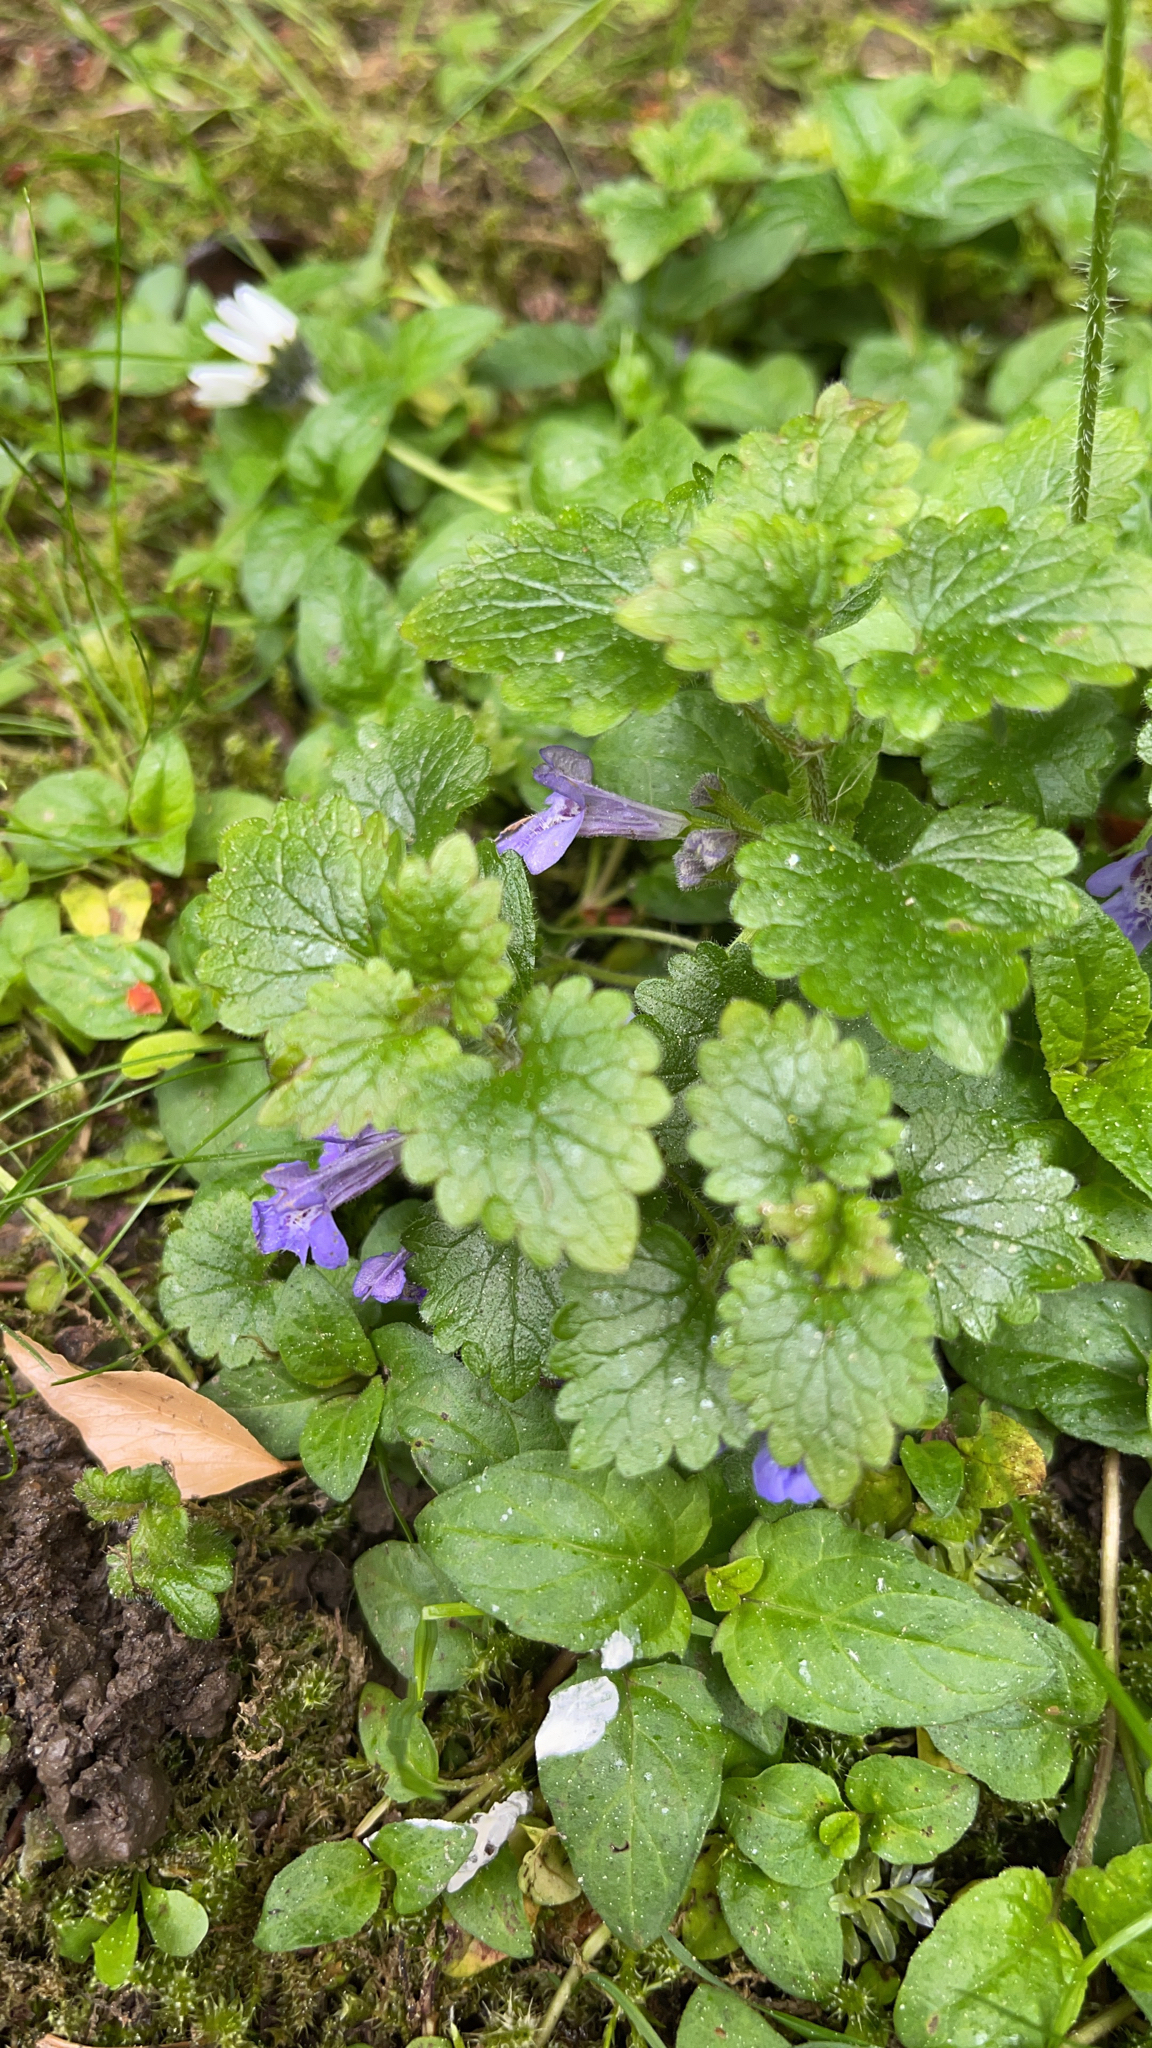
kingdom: Plantae
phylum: Tracheophyta
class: Magnoliopsida
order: Lamiales
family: Lamiaceae
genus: Glechoma
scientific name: Glechoma hederacea
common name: Ground ivy
